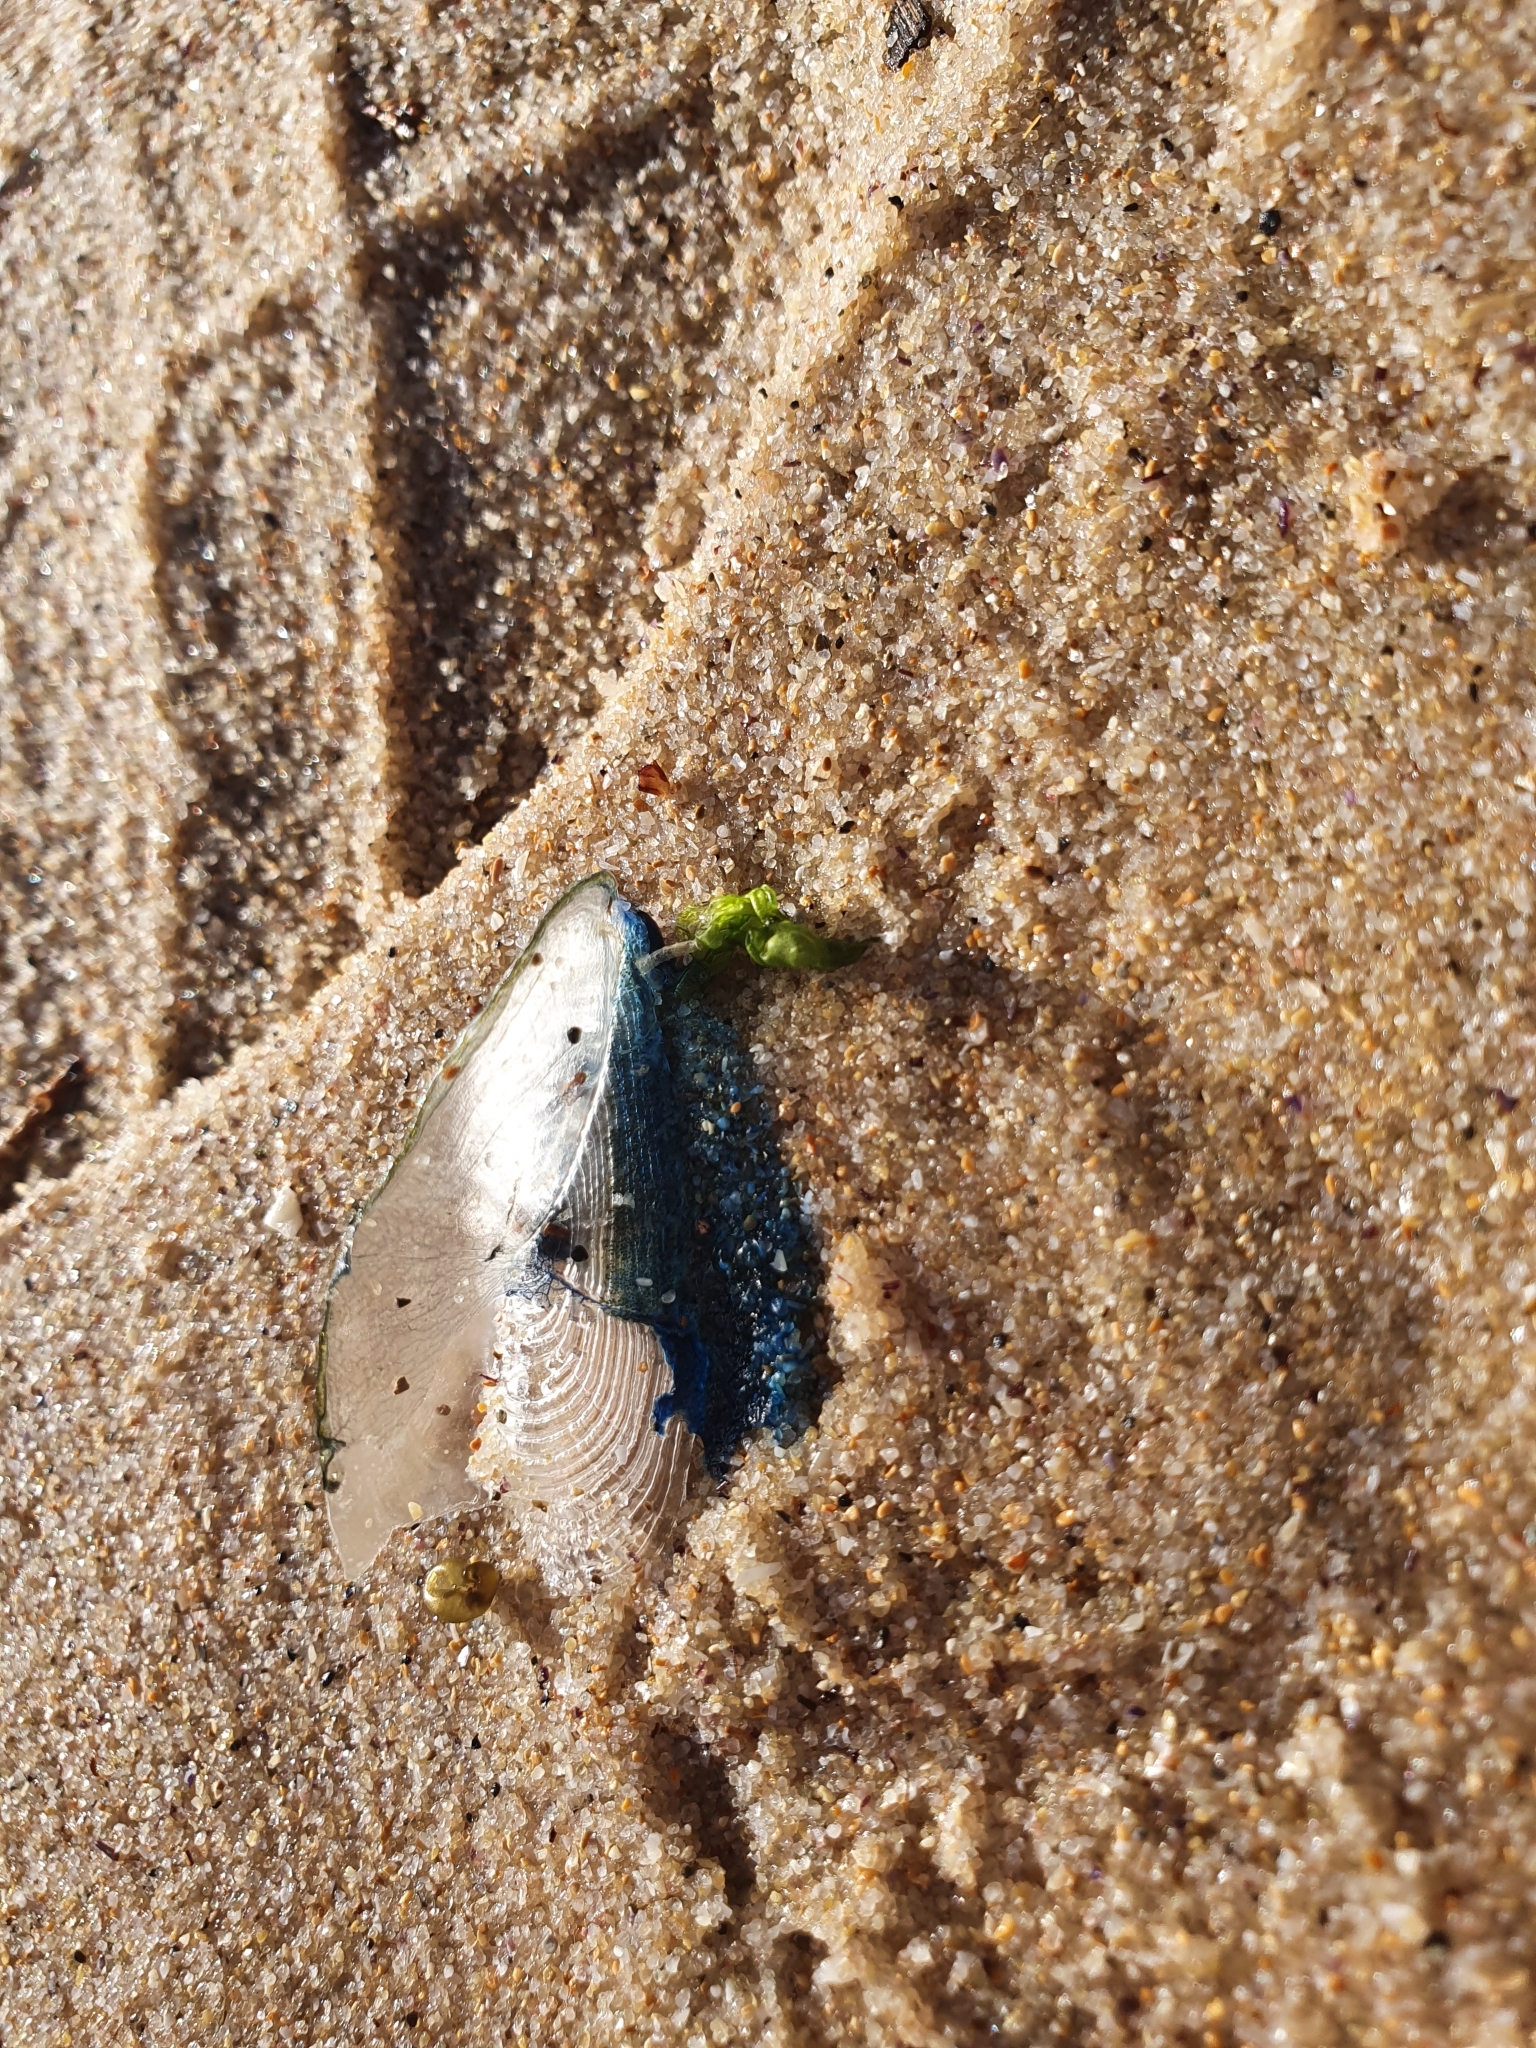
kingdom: Animalia
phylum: Cnidaria
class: Hydrozoa
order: Anthoathecata
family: Porpitidae
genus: Velella
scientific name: Velella velella
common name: By-the-wind-sailor
